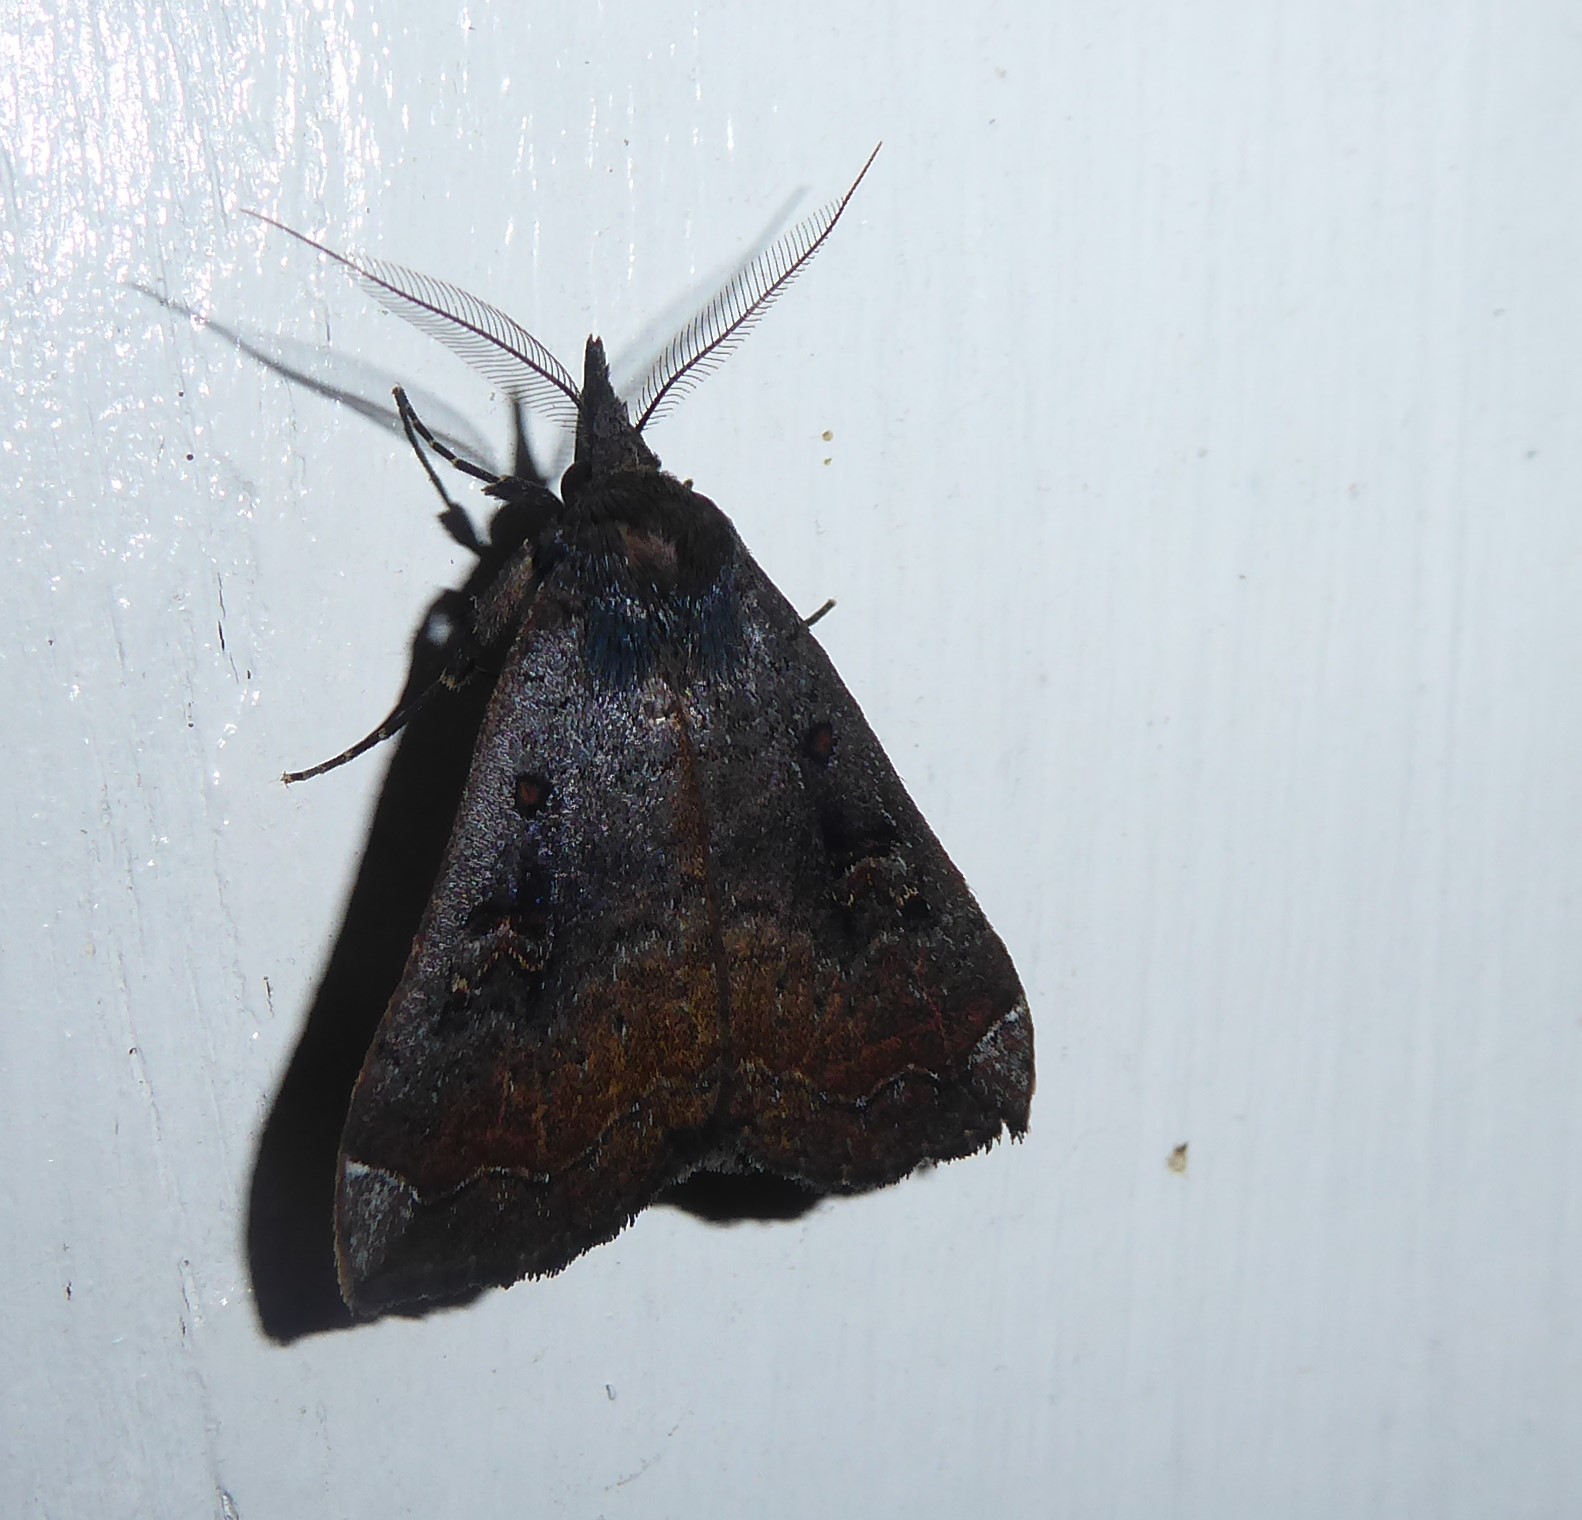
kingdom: Animalia
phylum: Arthropoda
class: Insecta
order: Lepidoptera
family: Erebidae
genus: Rhapsa
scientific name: Rhapsa scotosialis
